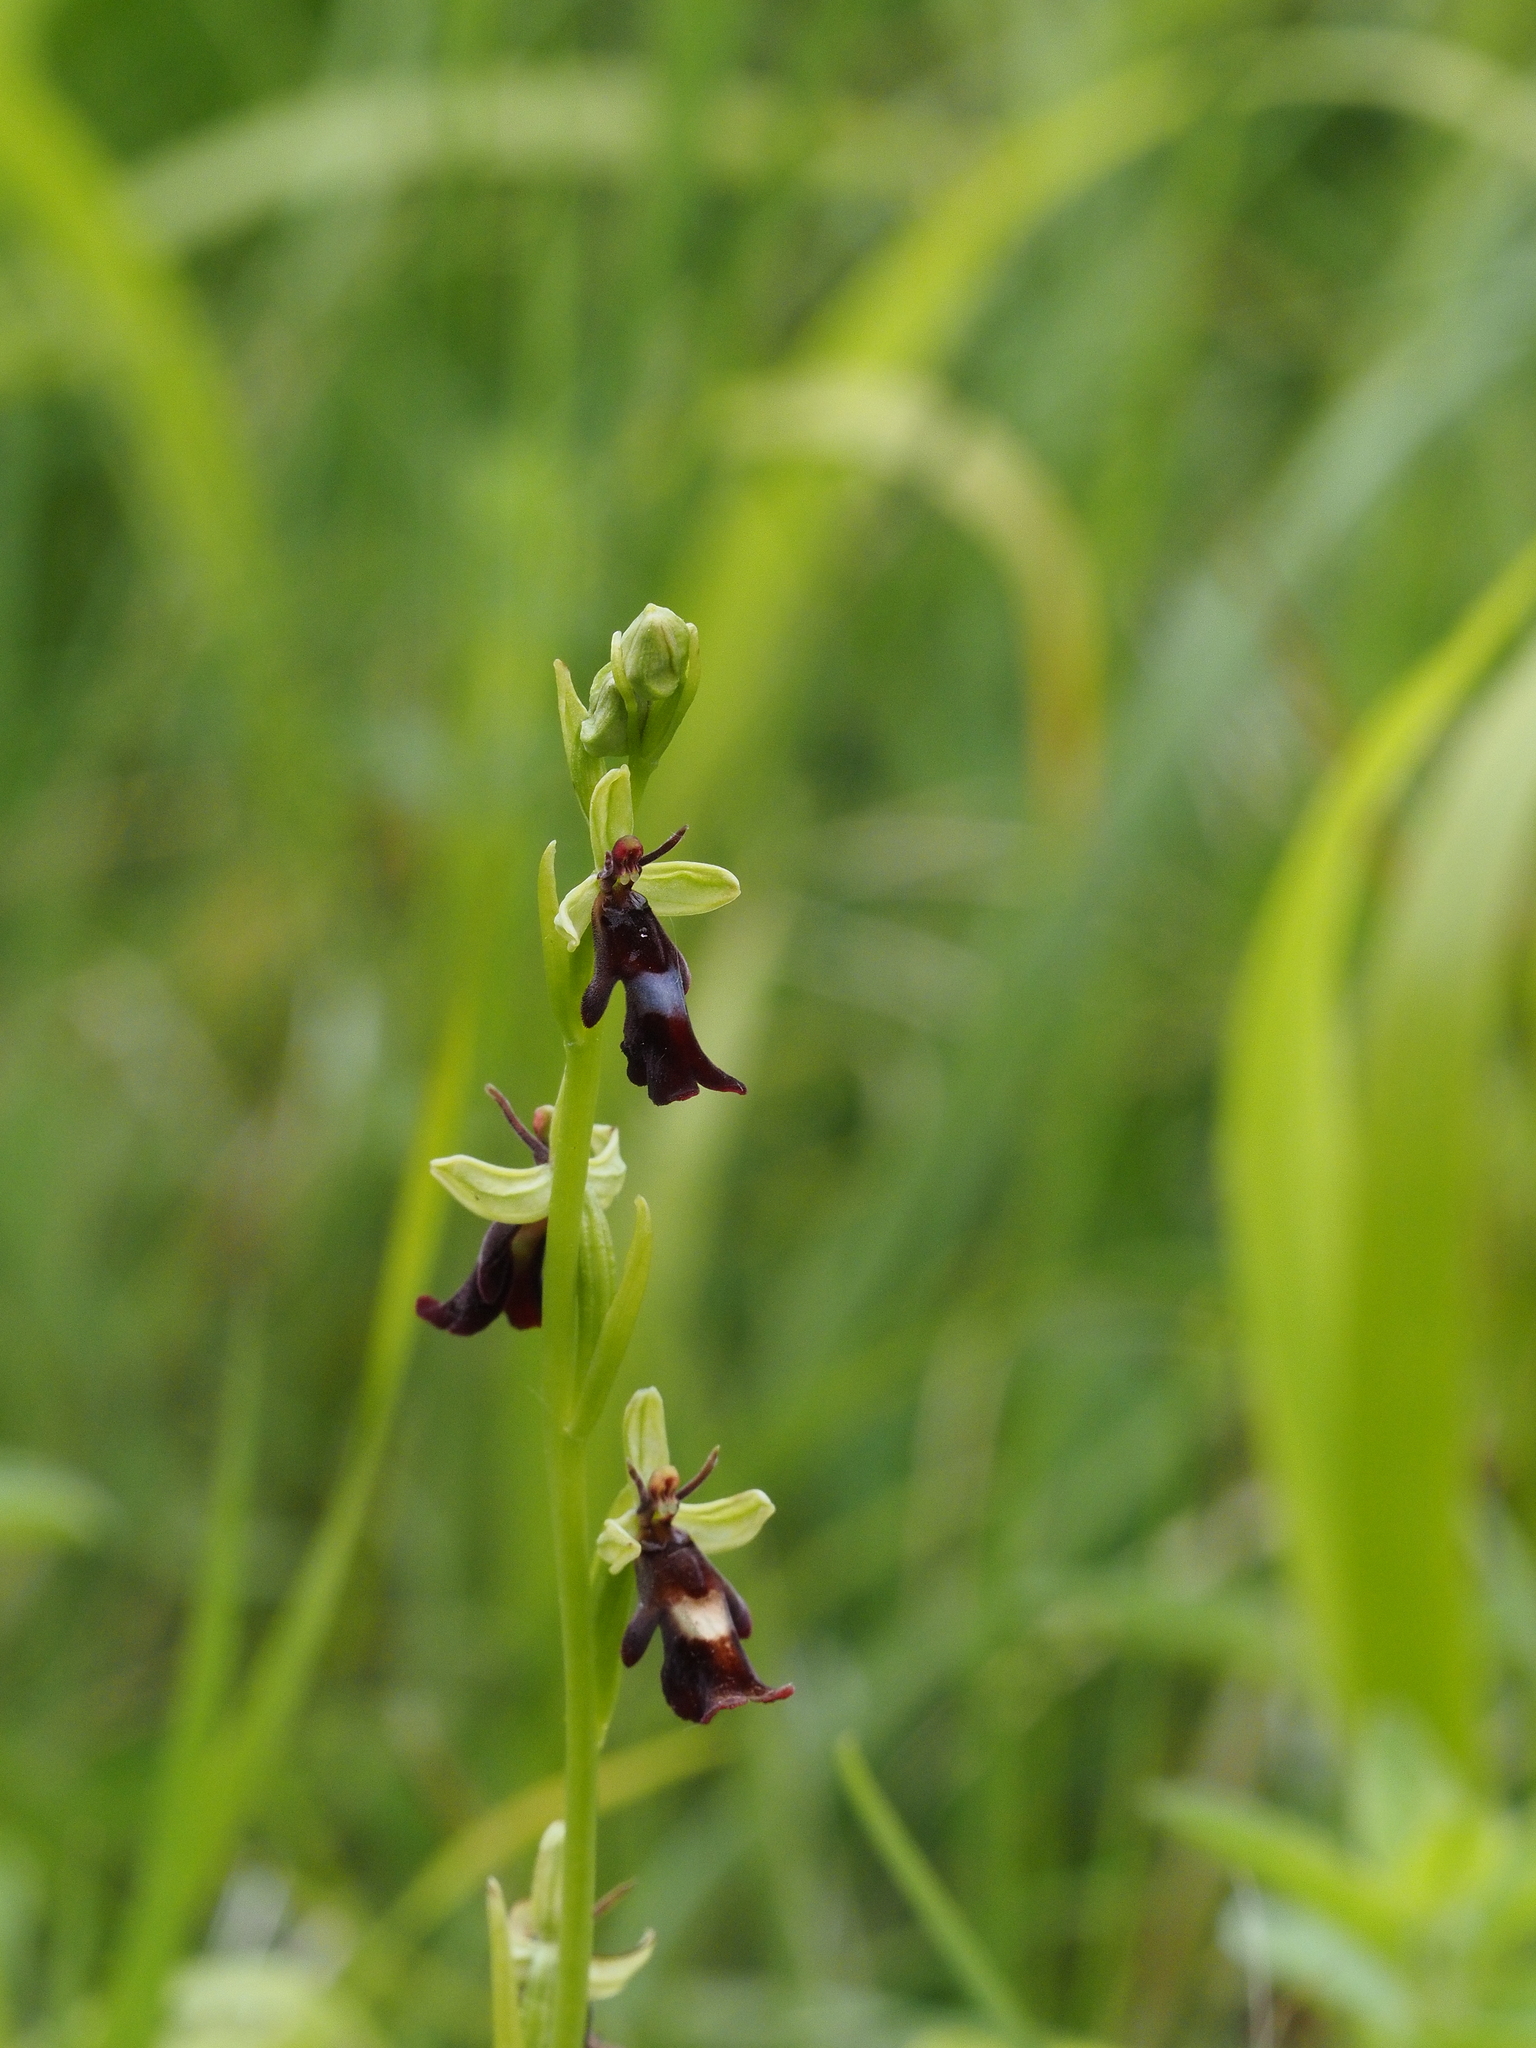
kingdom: Plantae
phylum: Tracheophyta
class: Liliopsida
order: Asparagales
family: Orchidaceae
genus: Ophrys
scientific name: Ophrys insectifera
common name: Fly orchid
